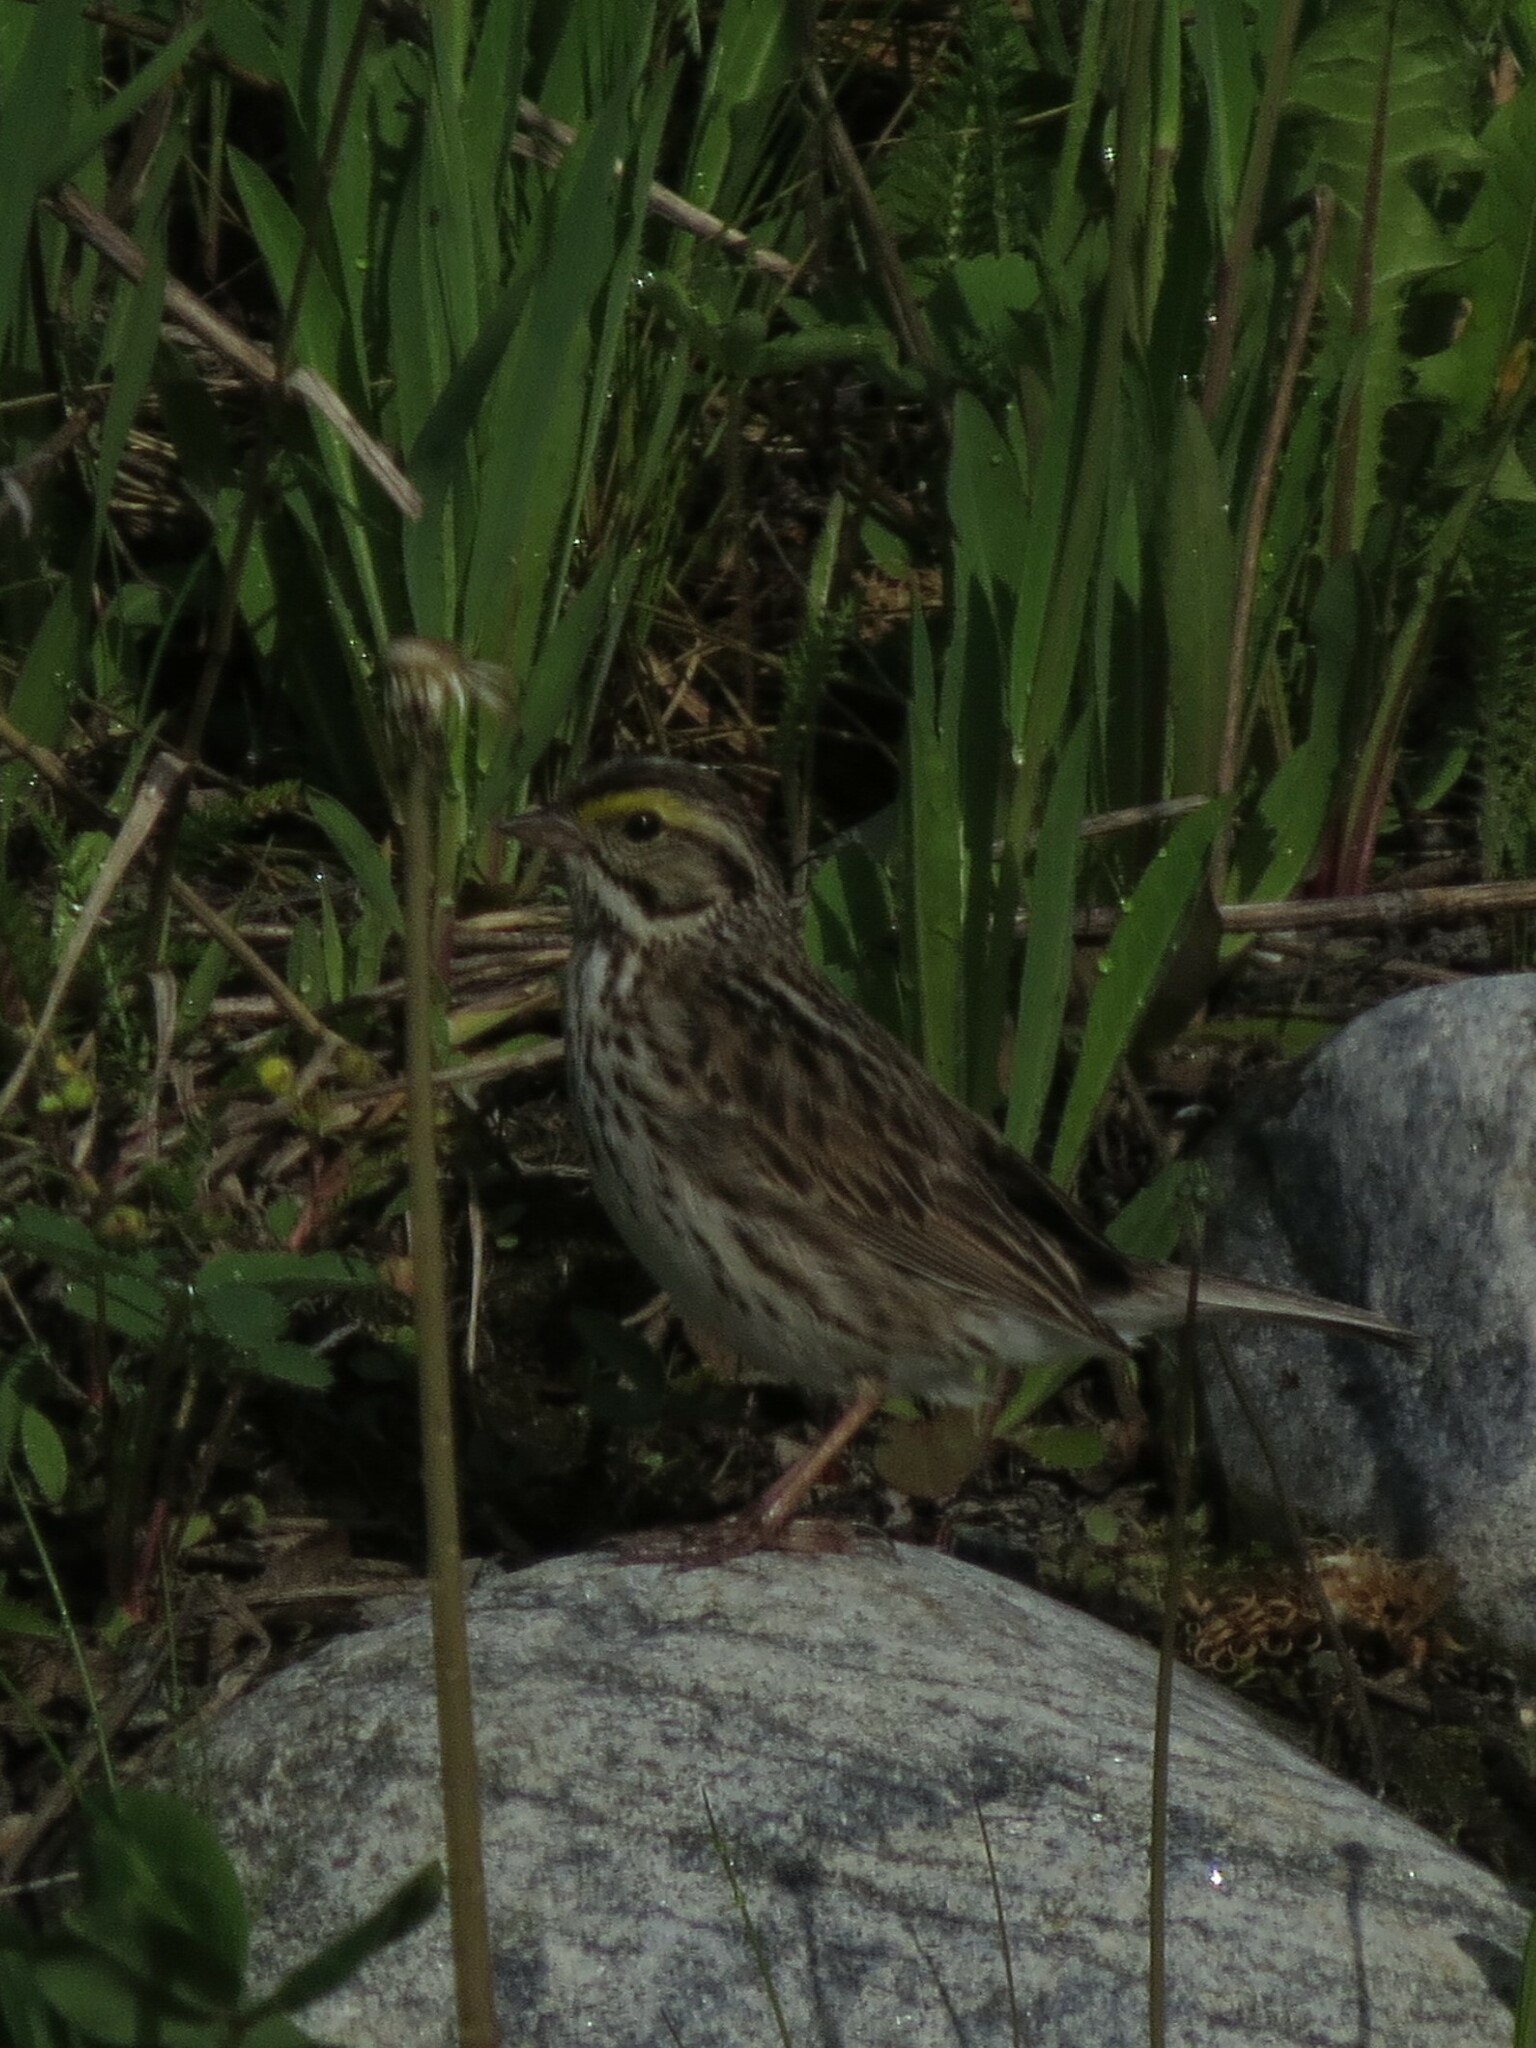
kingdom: Animalia
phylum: Chordata
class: Aves
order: Passeriformes
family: Passerellidae
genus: Passerculus
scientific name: Passerculus sandwichensis
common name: Savannah sparrow
